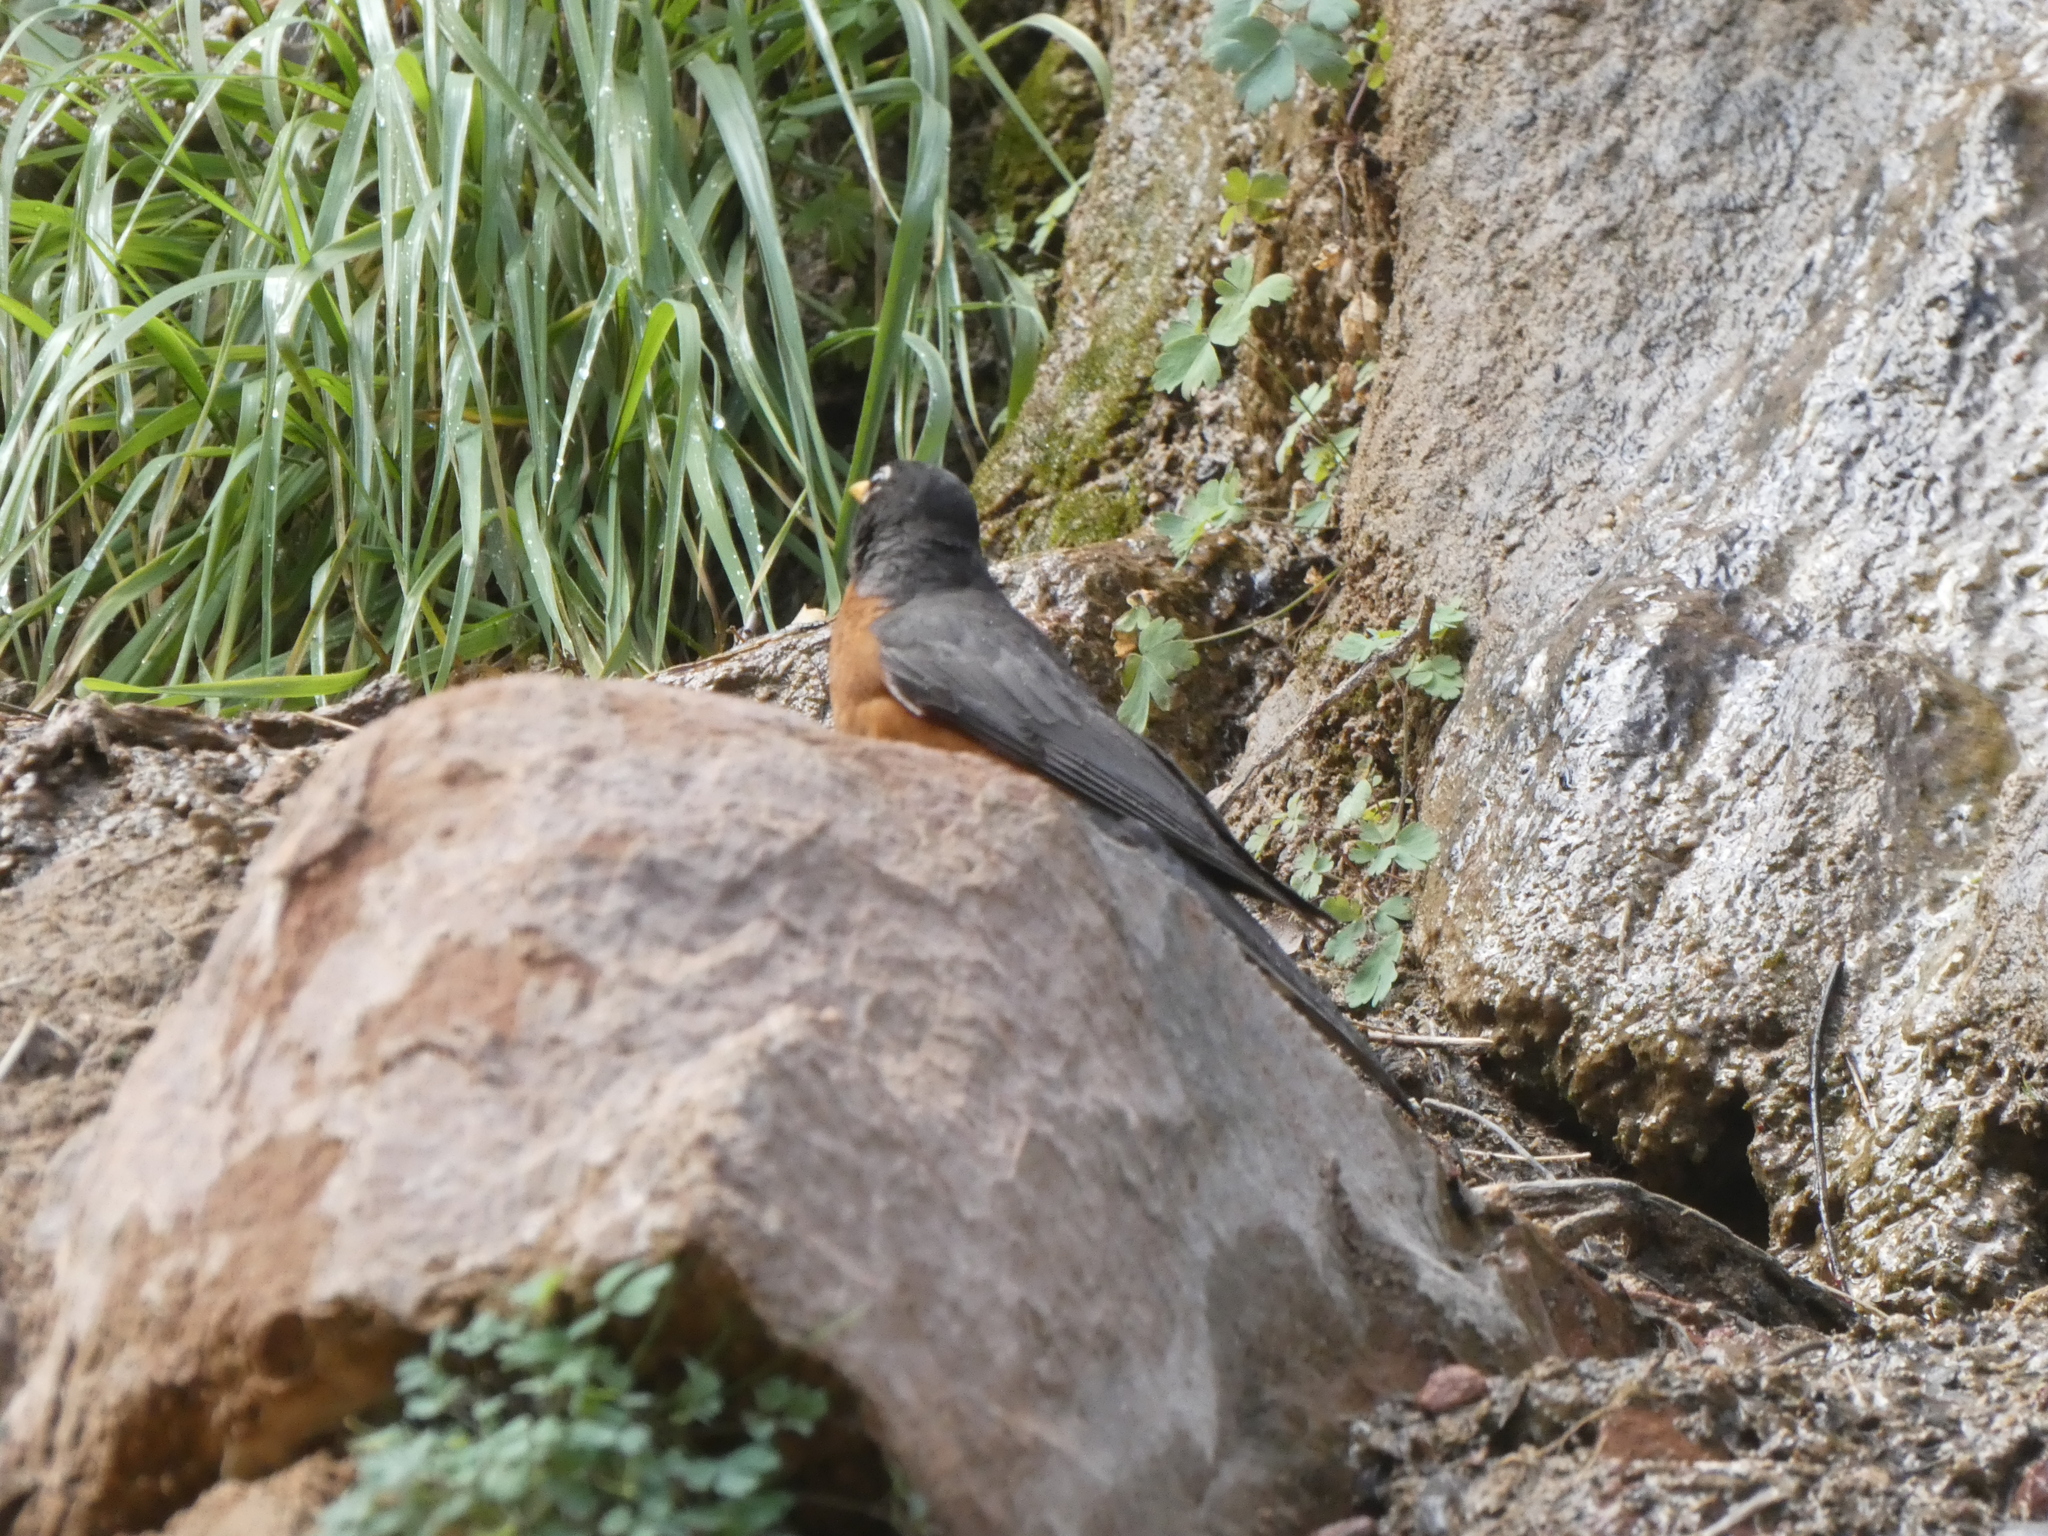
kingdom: Animalia
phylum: Chordata
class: Aves
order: Passeriformes
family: Turdidae
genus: Turdus
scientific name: Turdus migratorius
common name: American robin
